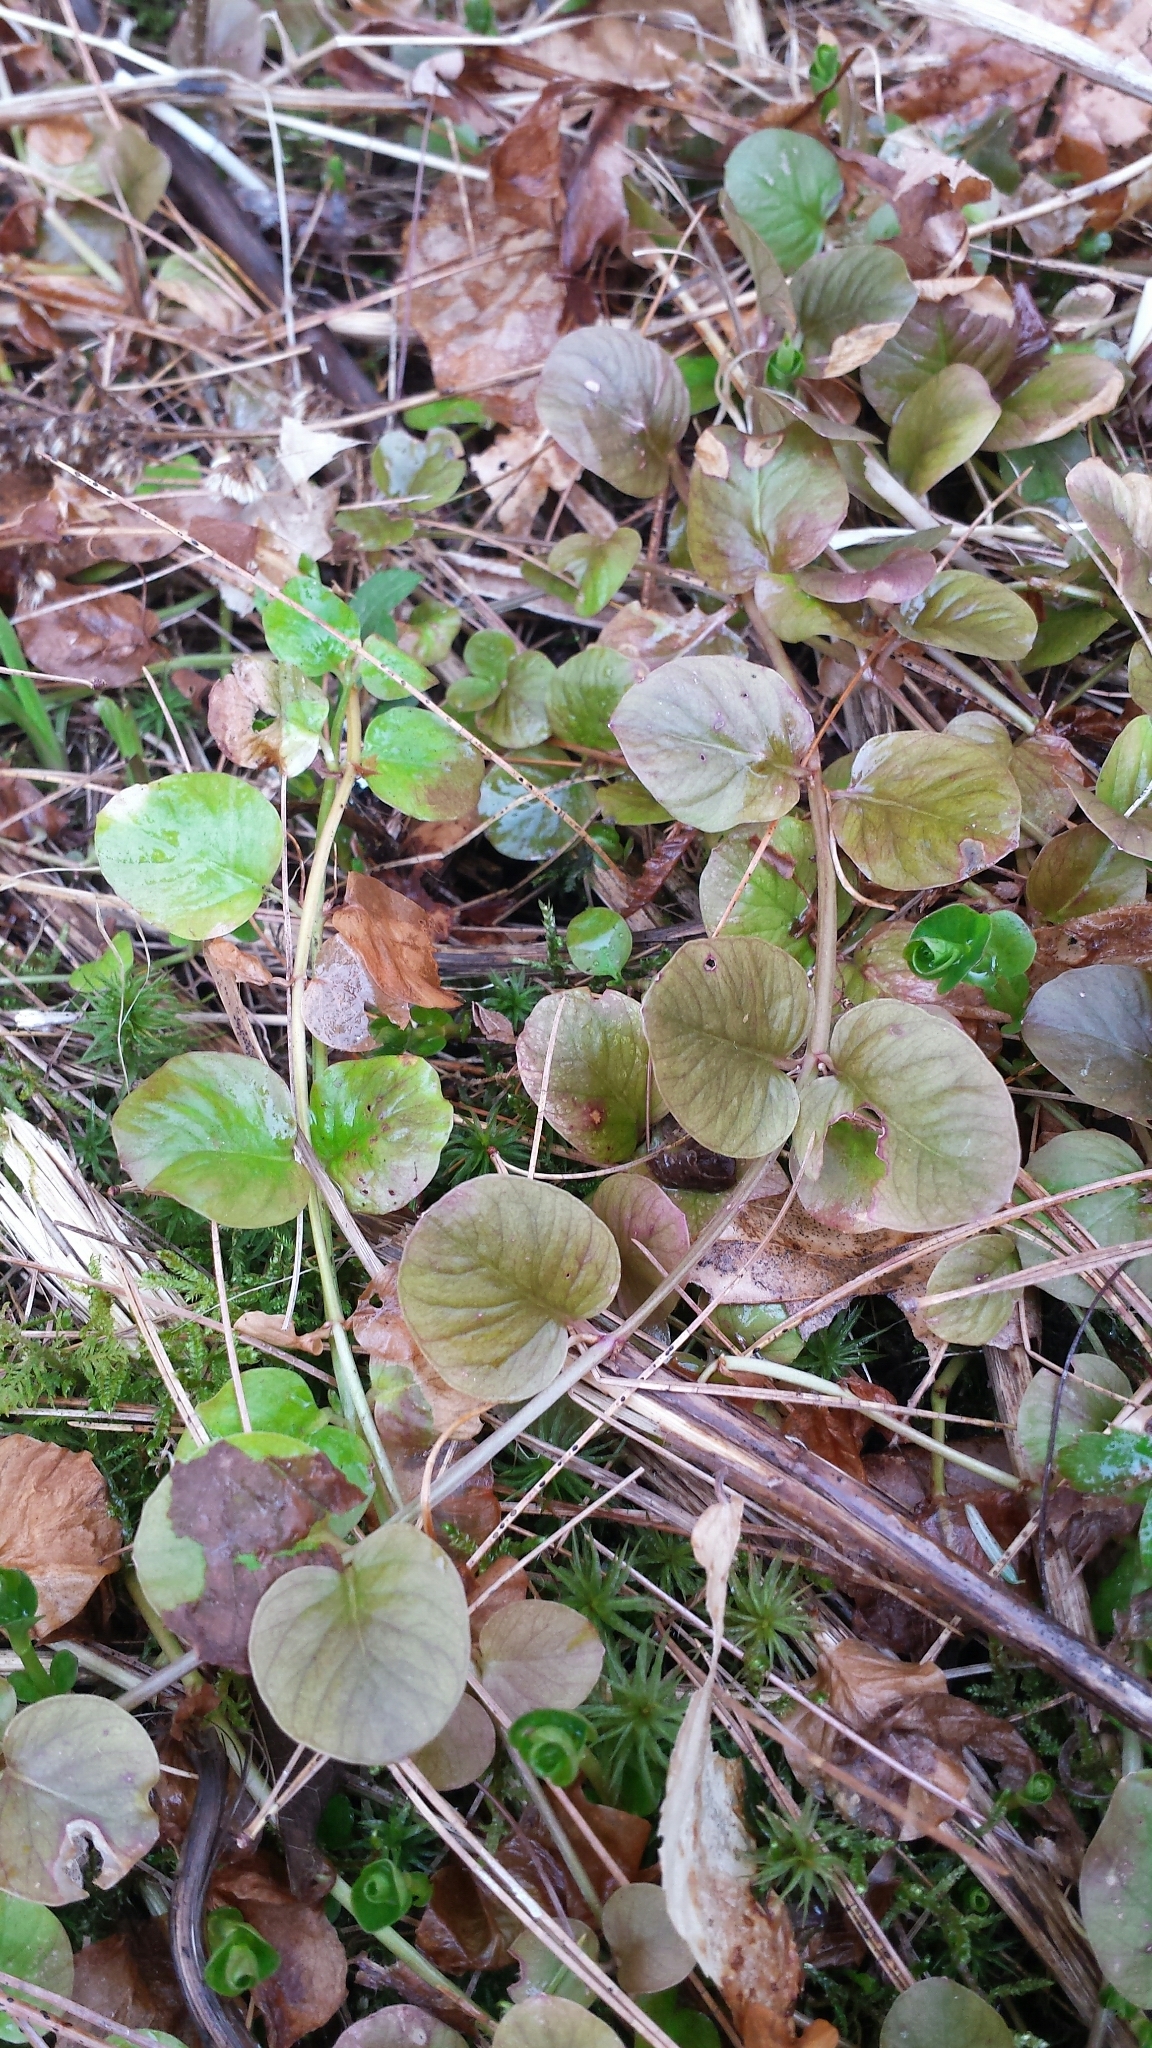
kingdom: Plantae
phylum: Tracheophyta
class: Magnoliopsida
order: Ericales
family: Primulaceae
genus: Lysimachia
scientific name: Lysimachia nummularia
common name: Moneywort
